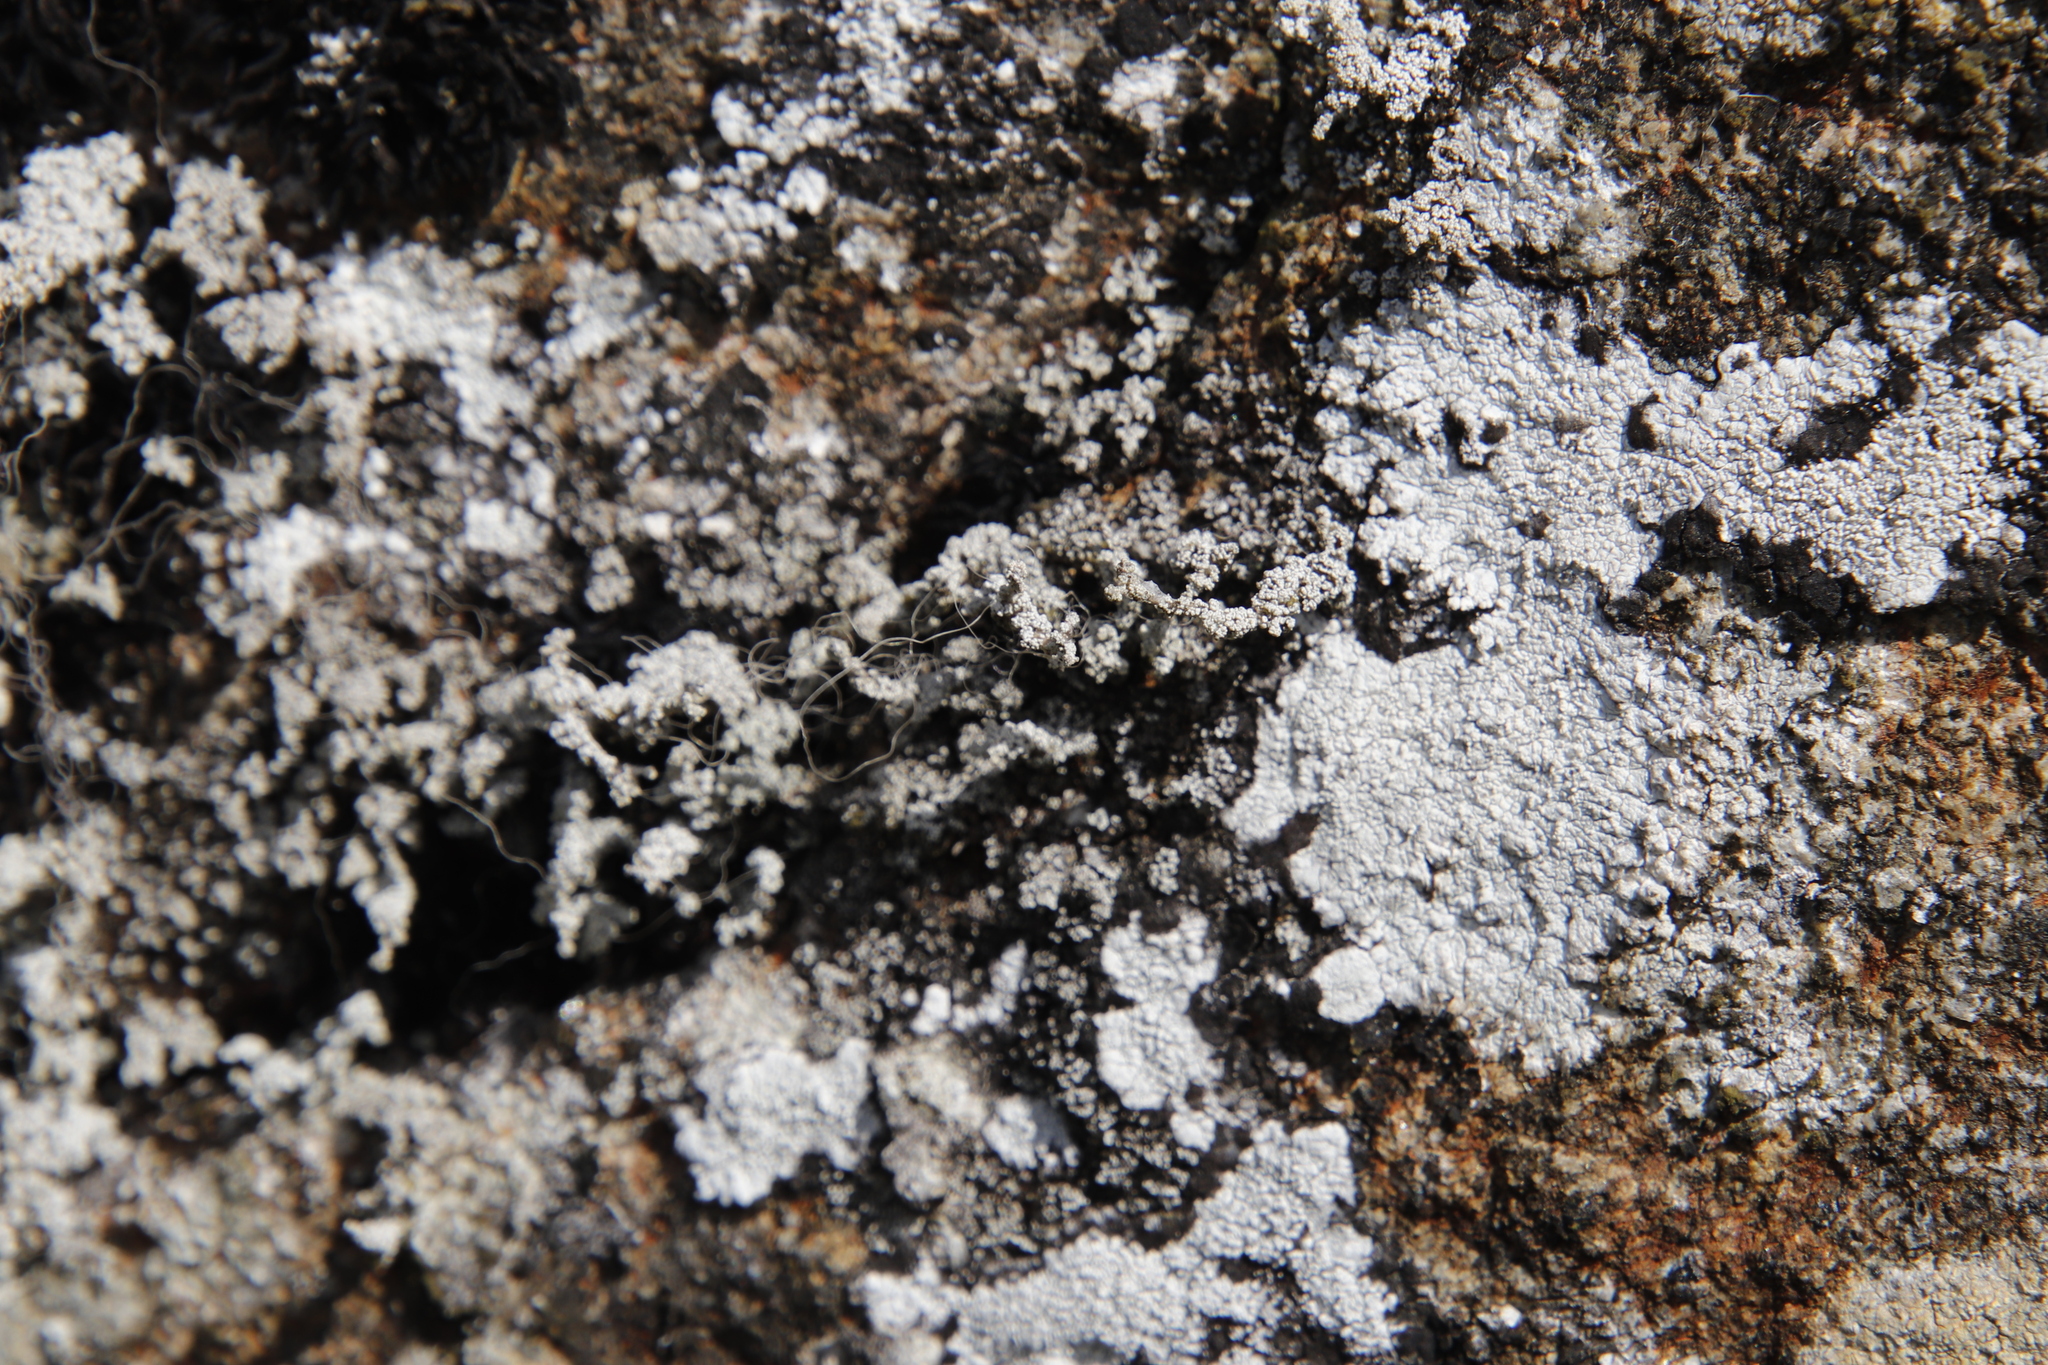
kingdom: Fungi
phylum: Ascomycota
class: Lecanoromycetes
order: Lecanorales
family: Stereocaulaceae
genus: Stereocaulon
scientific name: Stereocaulon vesuvianum
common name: Variegated foam lichen
